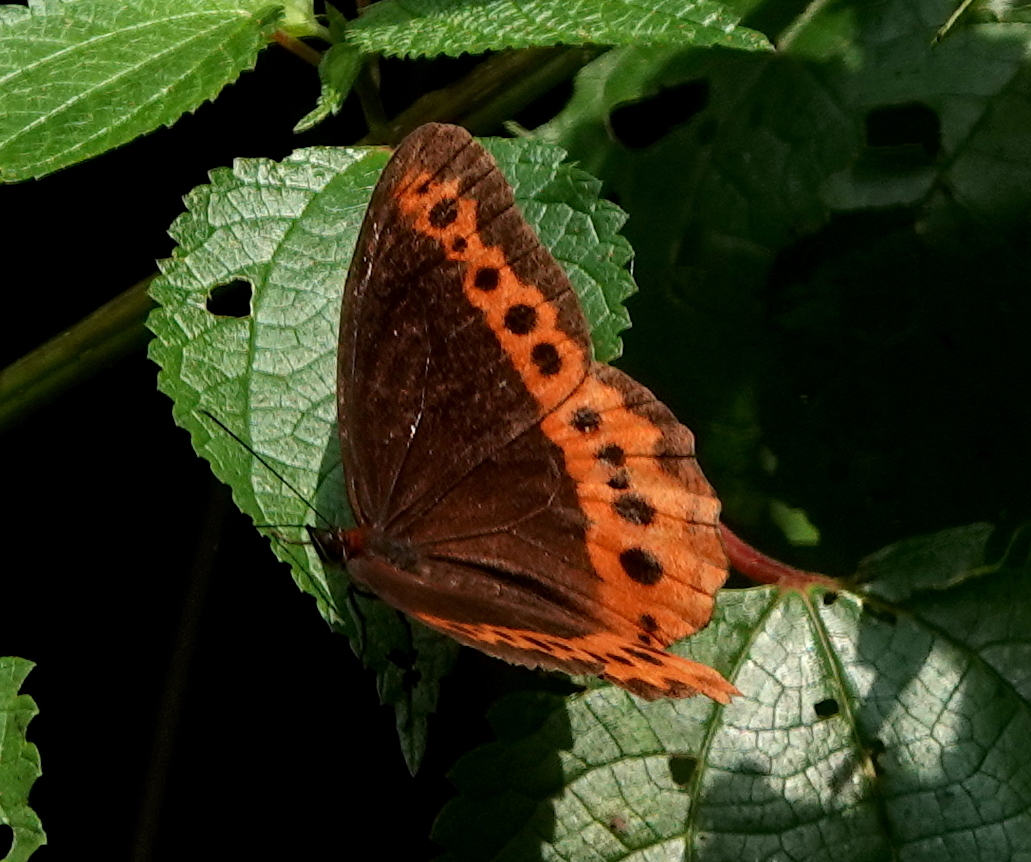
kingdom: Animalia
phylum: Arthropoda
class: Insecta
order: Lepidoptera
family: Nymphalidae
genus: Oxeoschistus
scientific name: Oxeoschistus simplex
